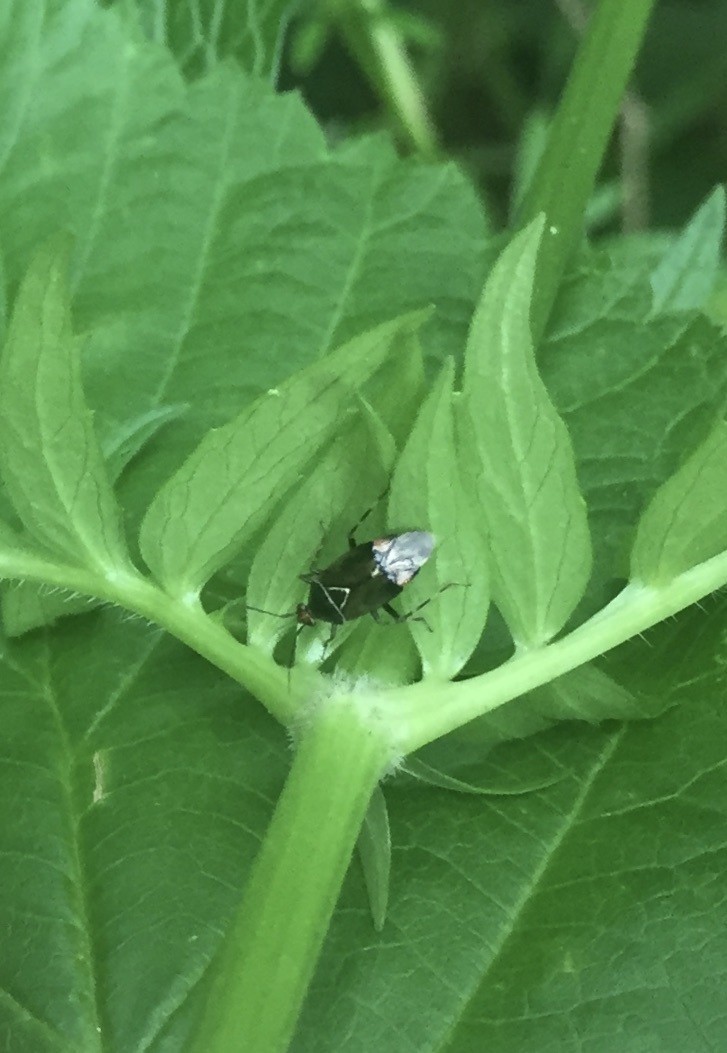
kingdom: Animalia
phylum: Arthropoda
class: Insecta
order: Hemiptera
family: Miridae
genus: Deraeocoris
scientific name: Deraeocoris flavilinea
